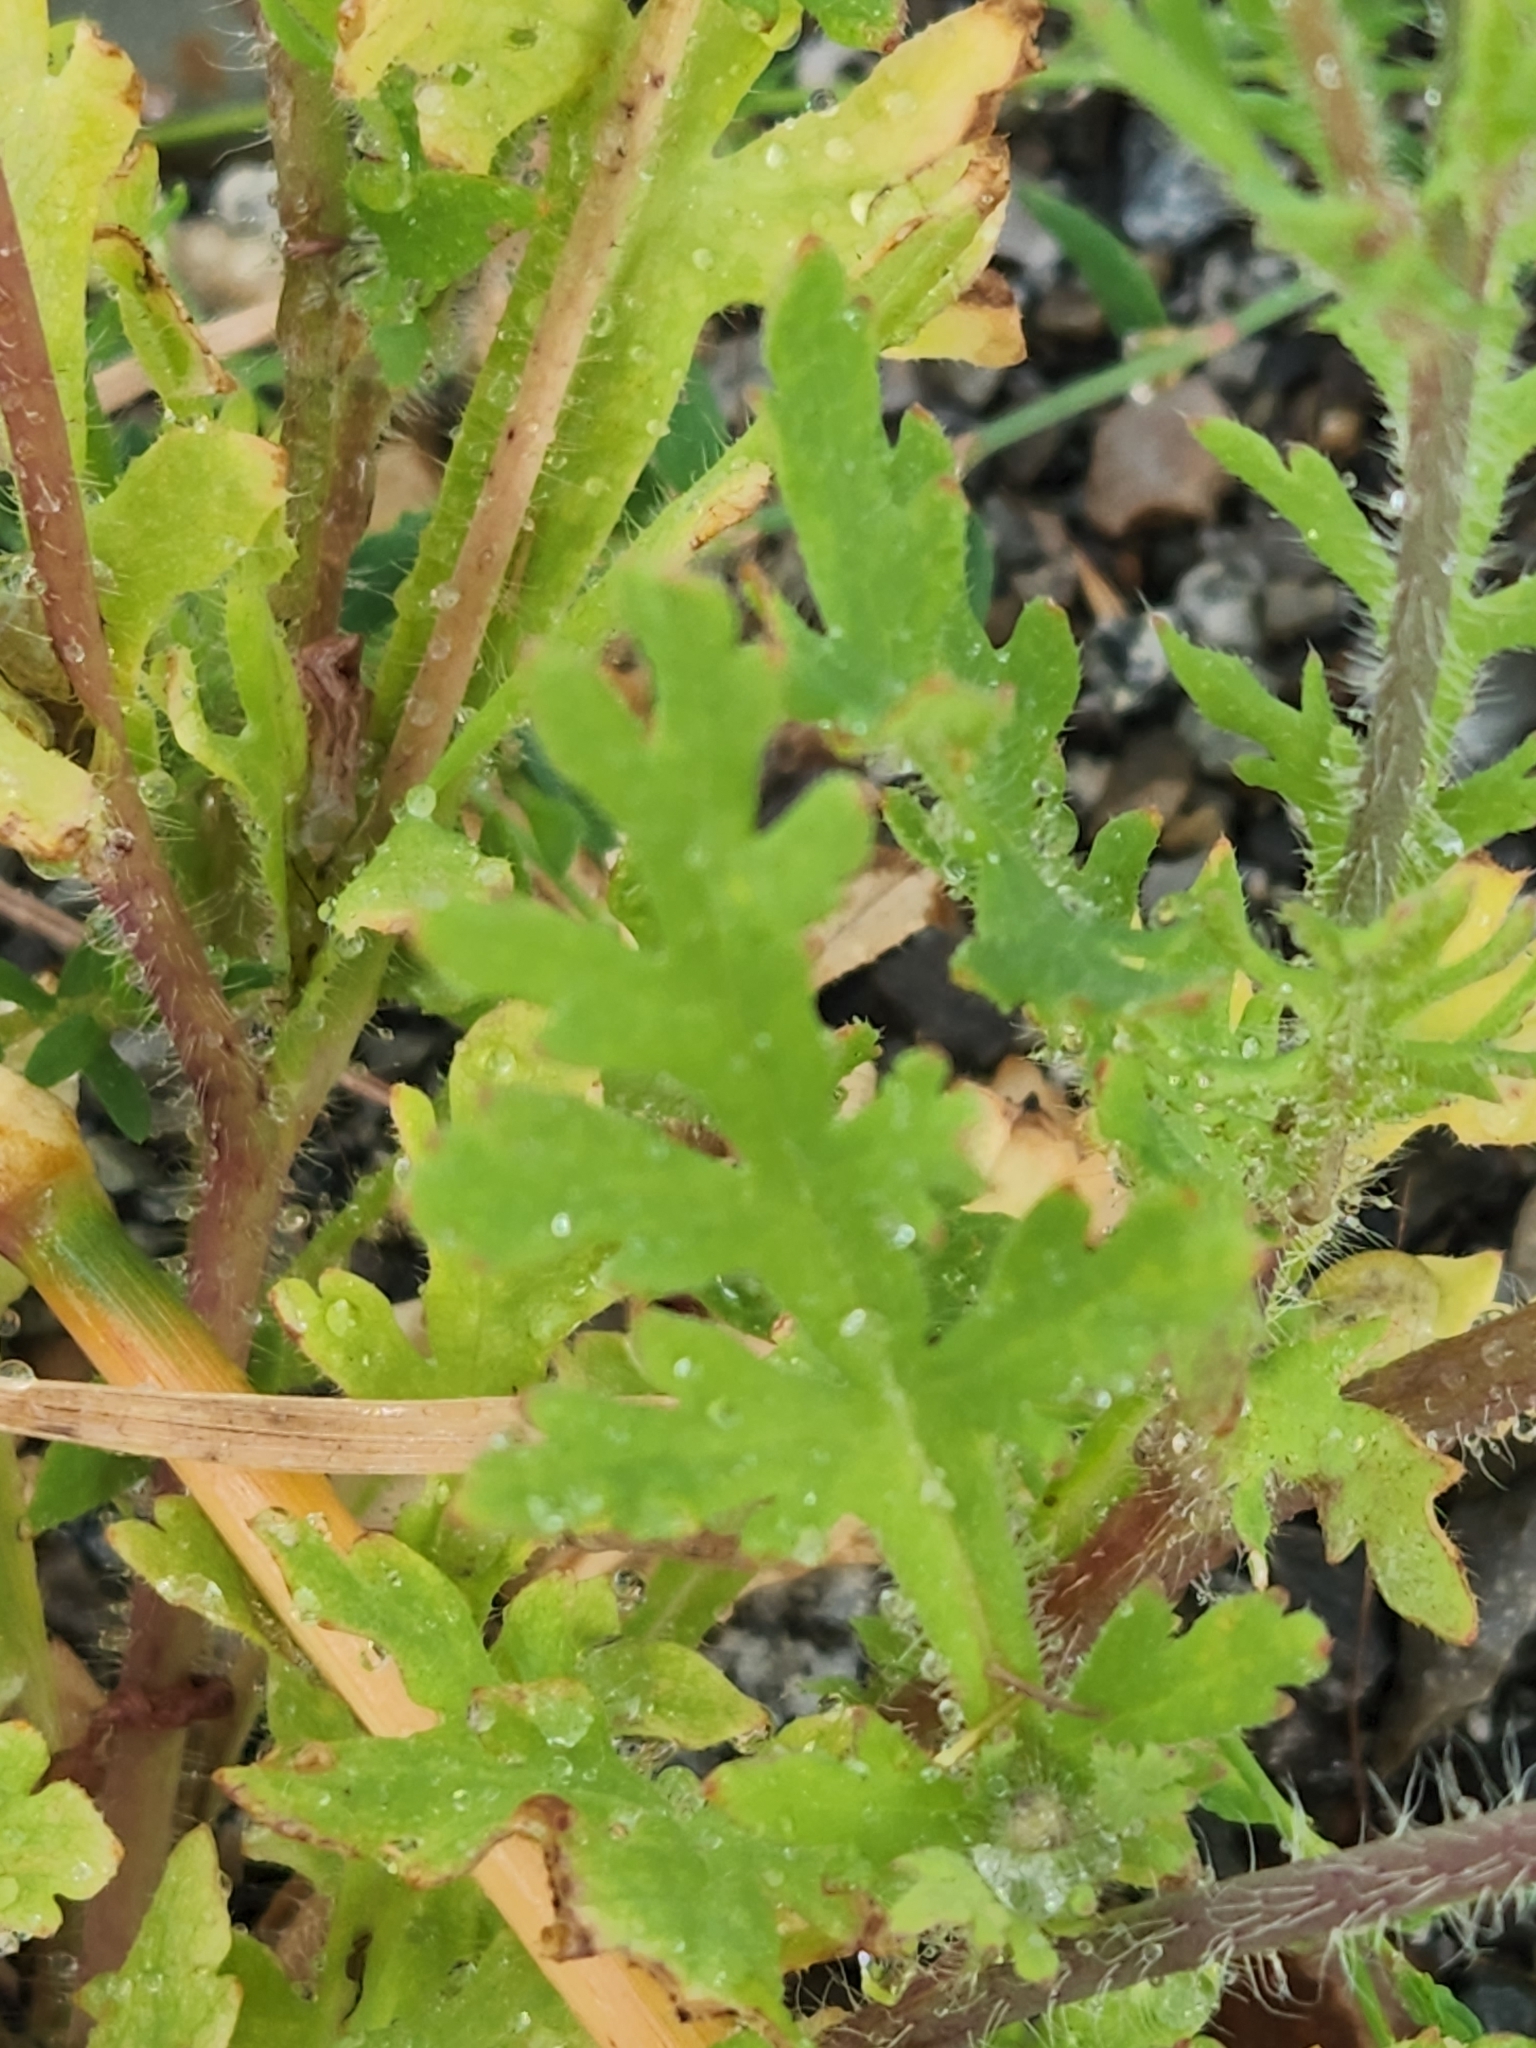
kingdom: Plantae
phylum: Tracheophyta
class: Magnoliopsida
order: Ranunculales
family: Papaveraceae
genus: Papaver
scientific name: Papaver dubium
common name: Long-headed poppy
